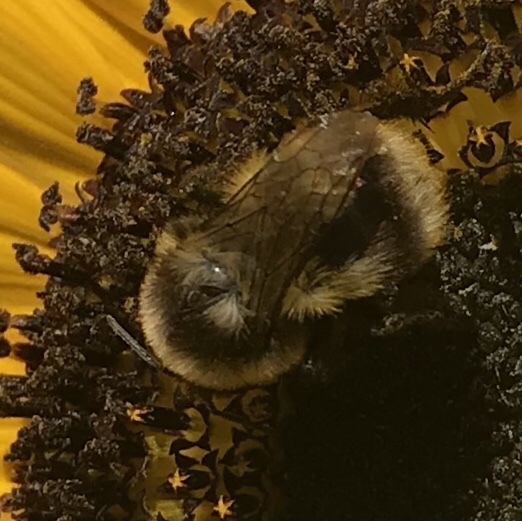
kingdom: Animalia
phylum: Arthropoda
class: Insecta
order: Hymenoptera
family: Apidae
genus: Bombus
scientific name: Bombus
